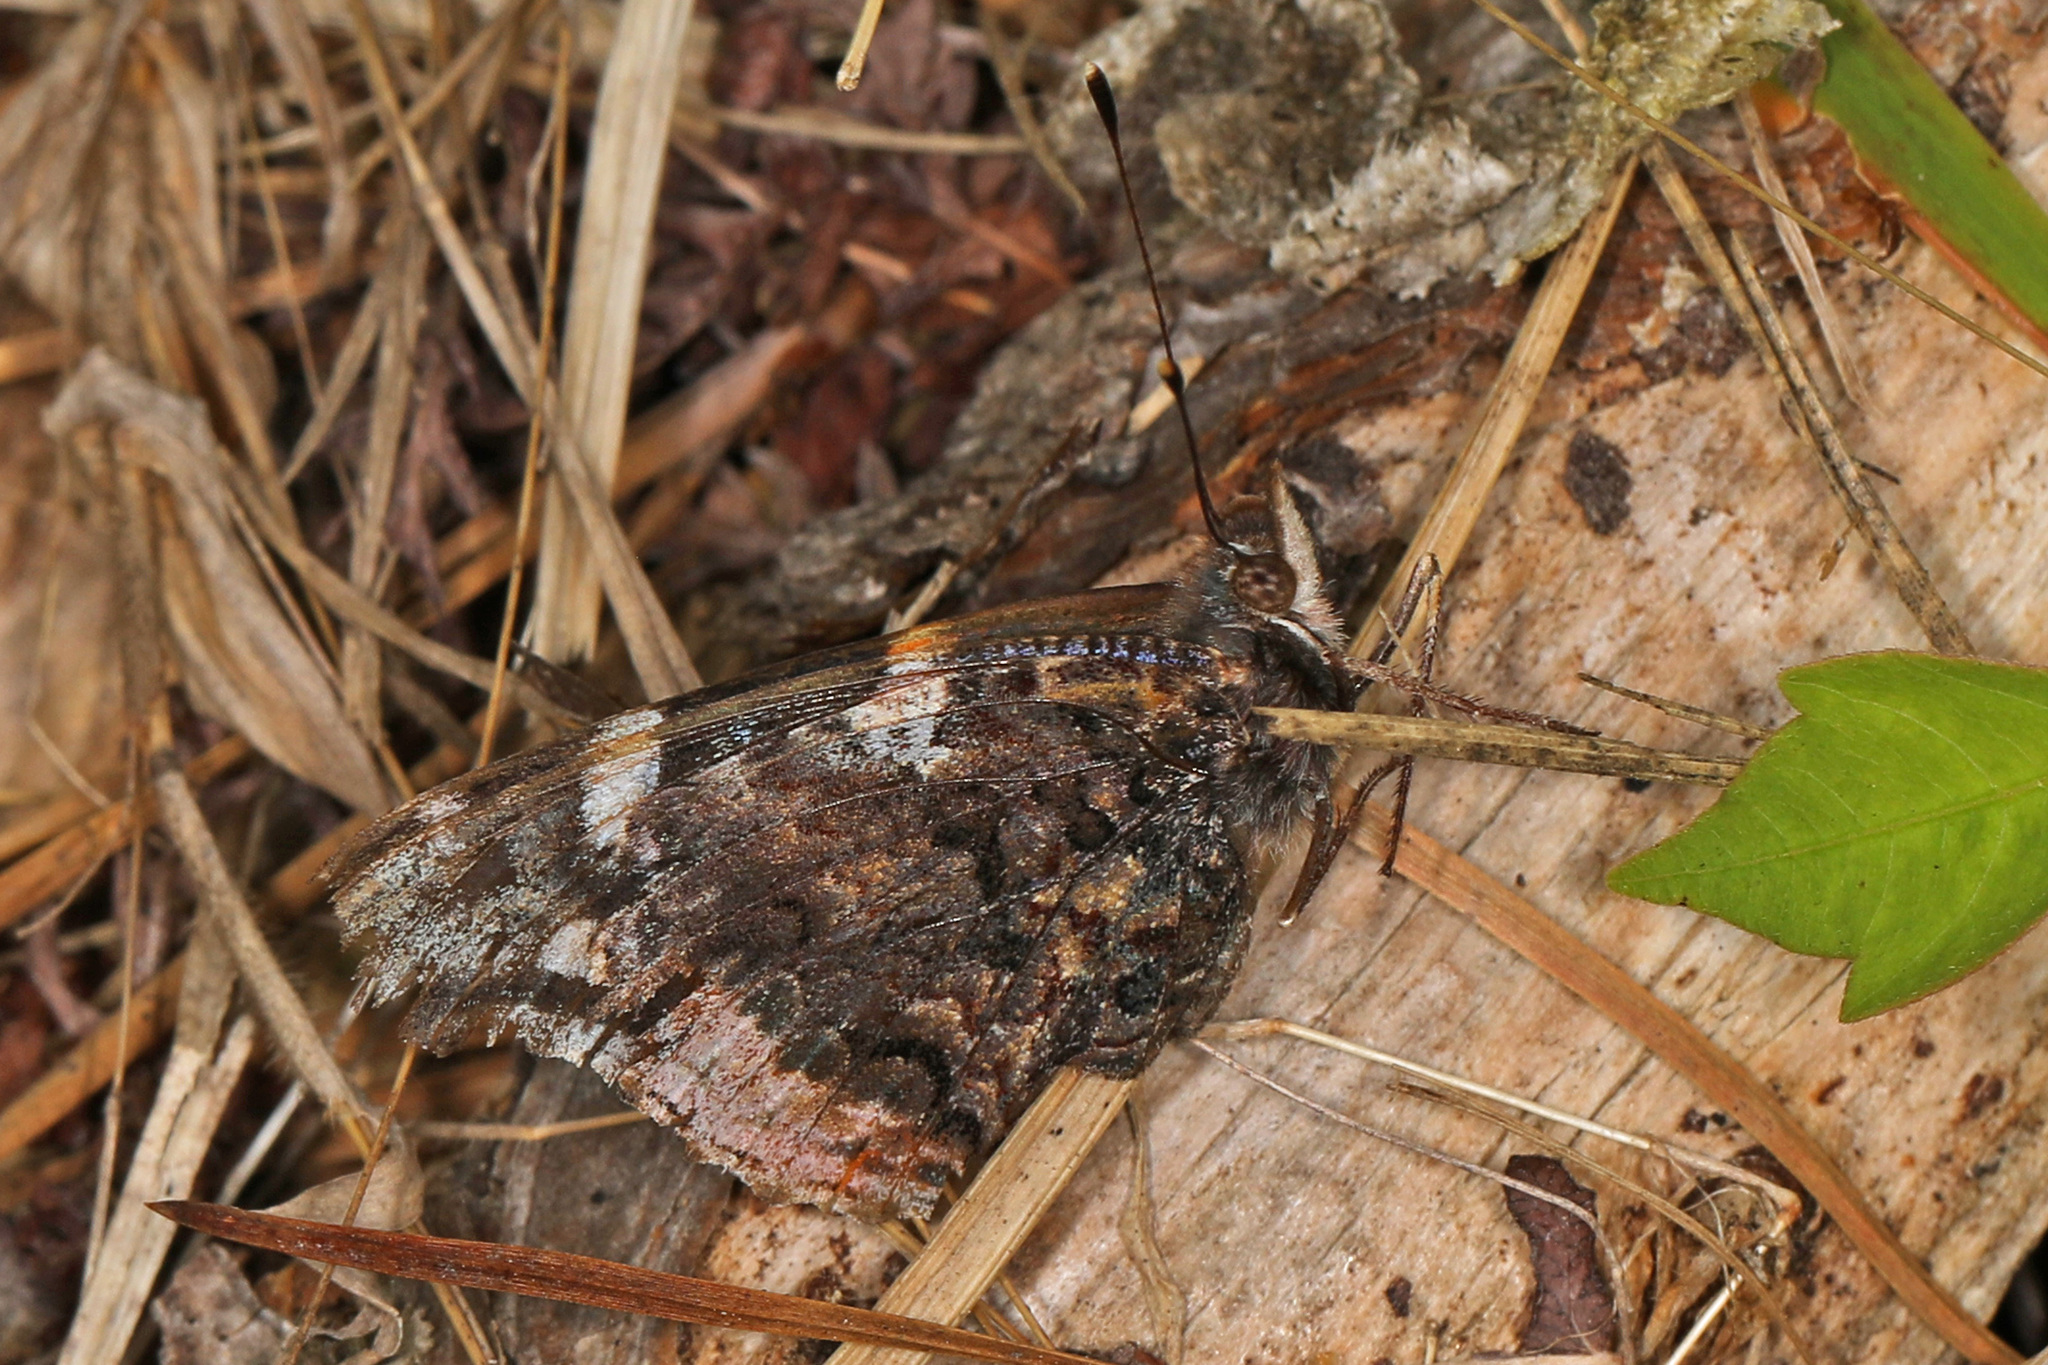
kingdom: Animalia
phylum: Arthropoda
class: Insecta
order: Lepidoptera
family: Nymphalidae
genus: Vanessa
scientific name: Vanessa atalanta
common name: Red admiral
